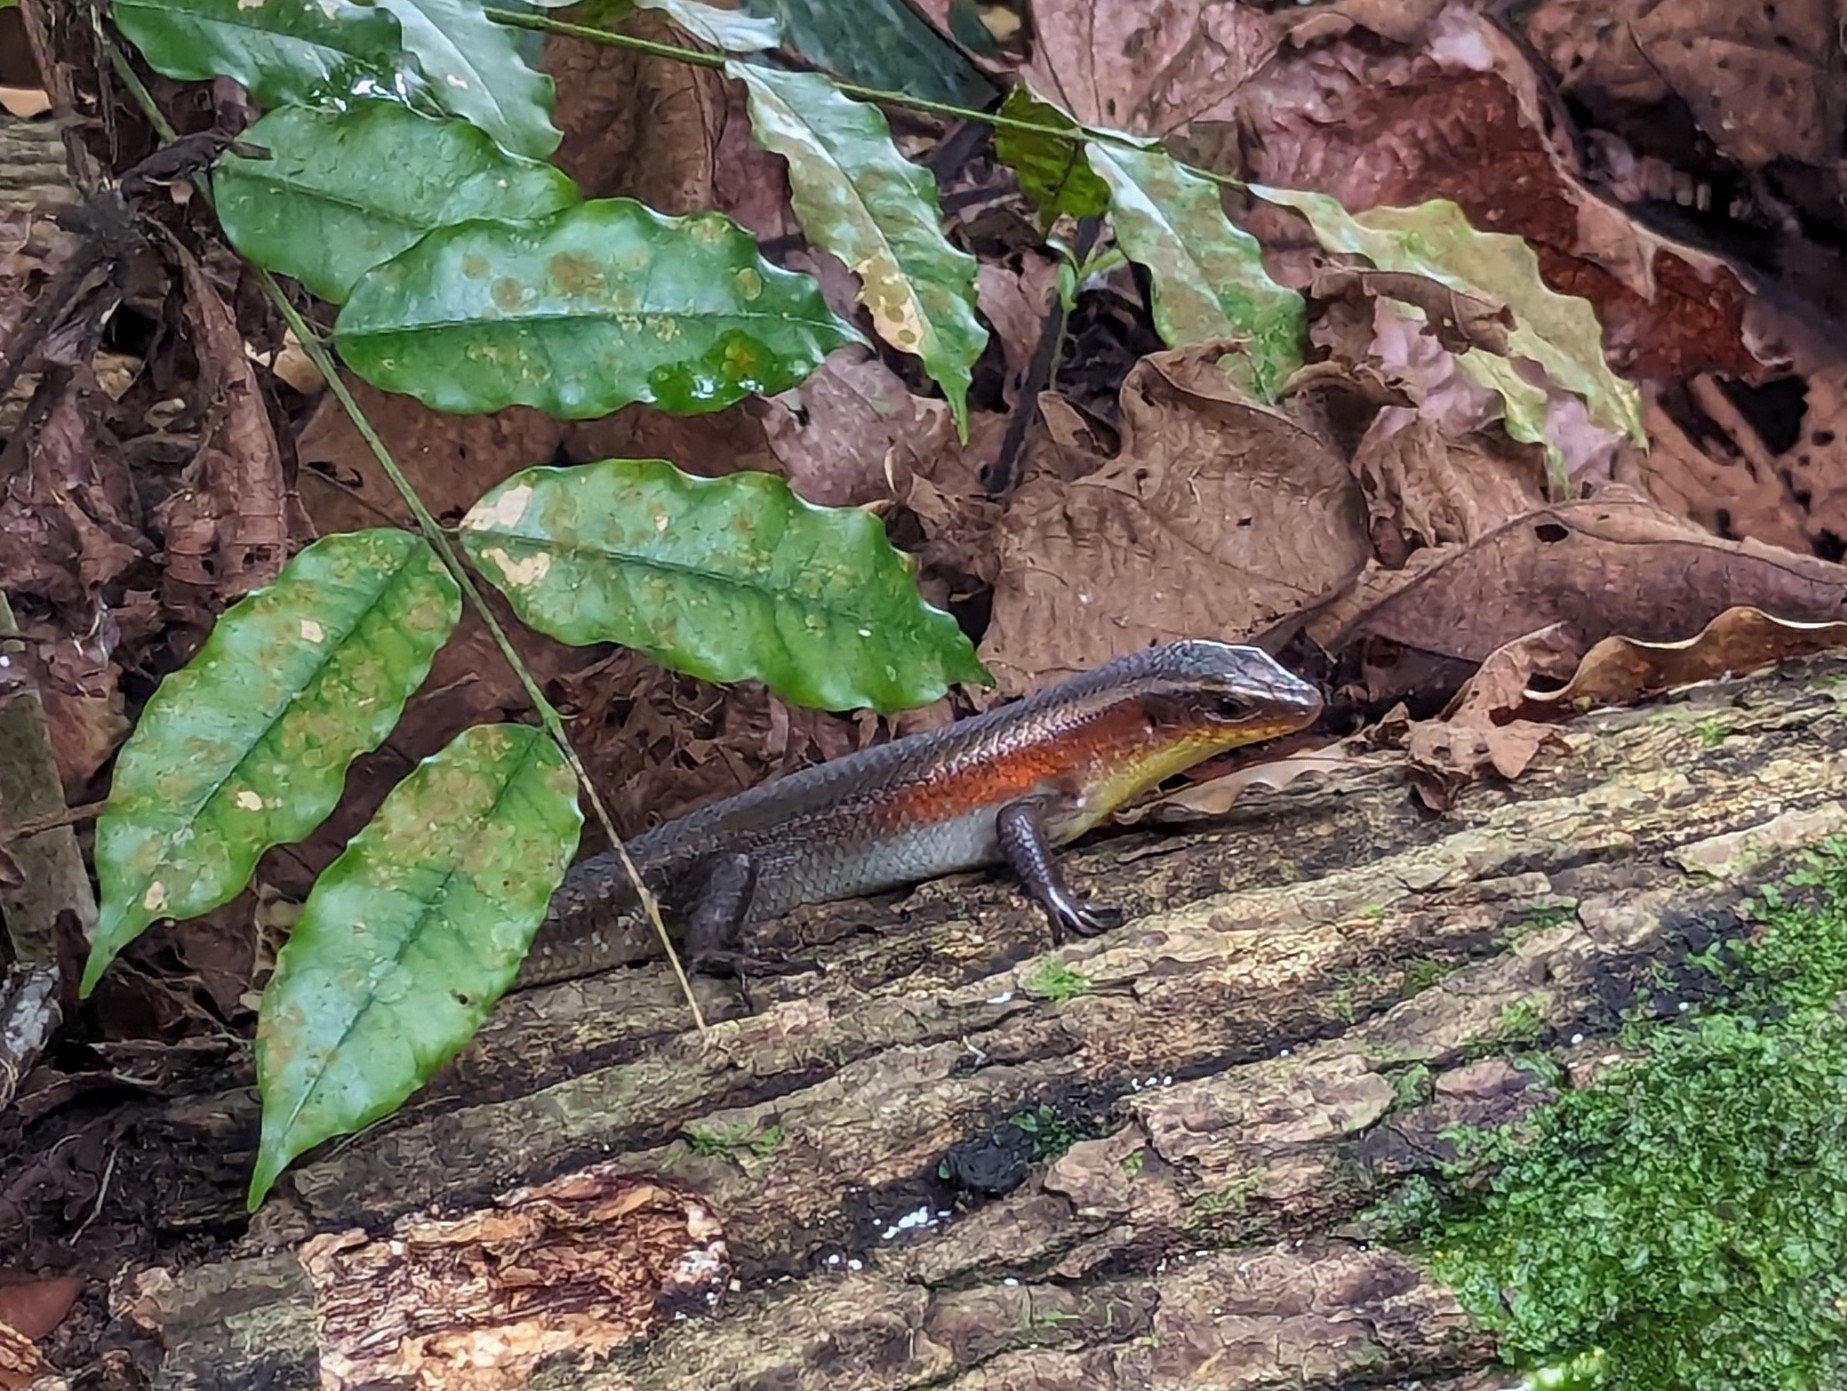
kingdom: Animalia
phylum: Chordata
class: Squamata
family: Scincidae
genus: Eutropis
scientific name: Eutropis multifasciata
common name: Common mabuya
